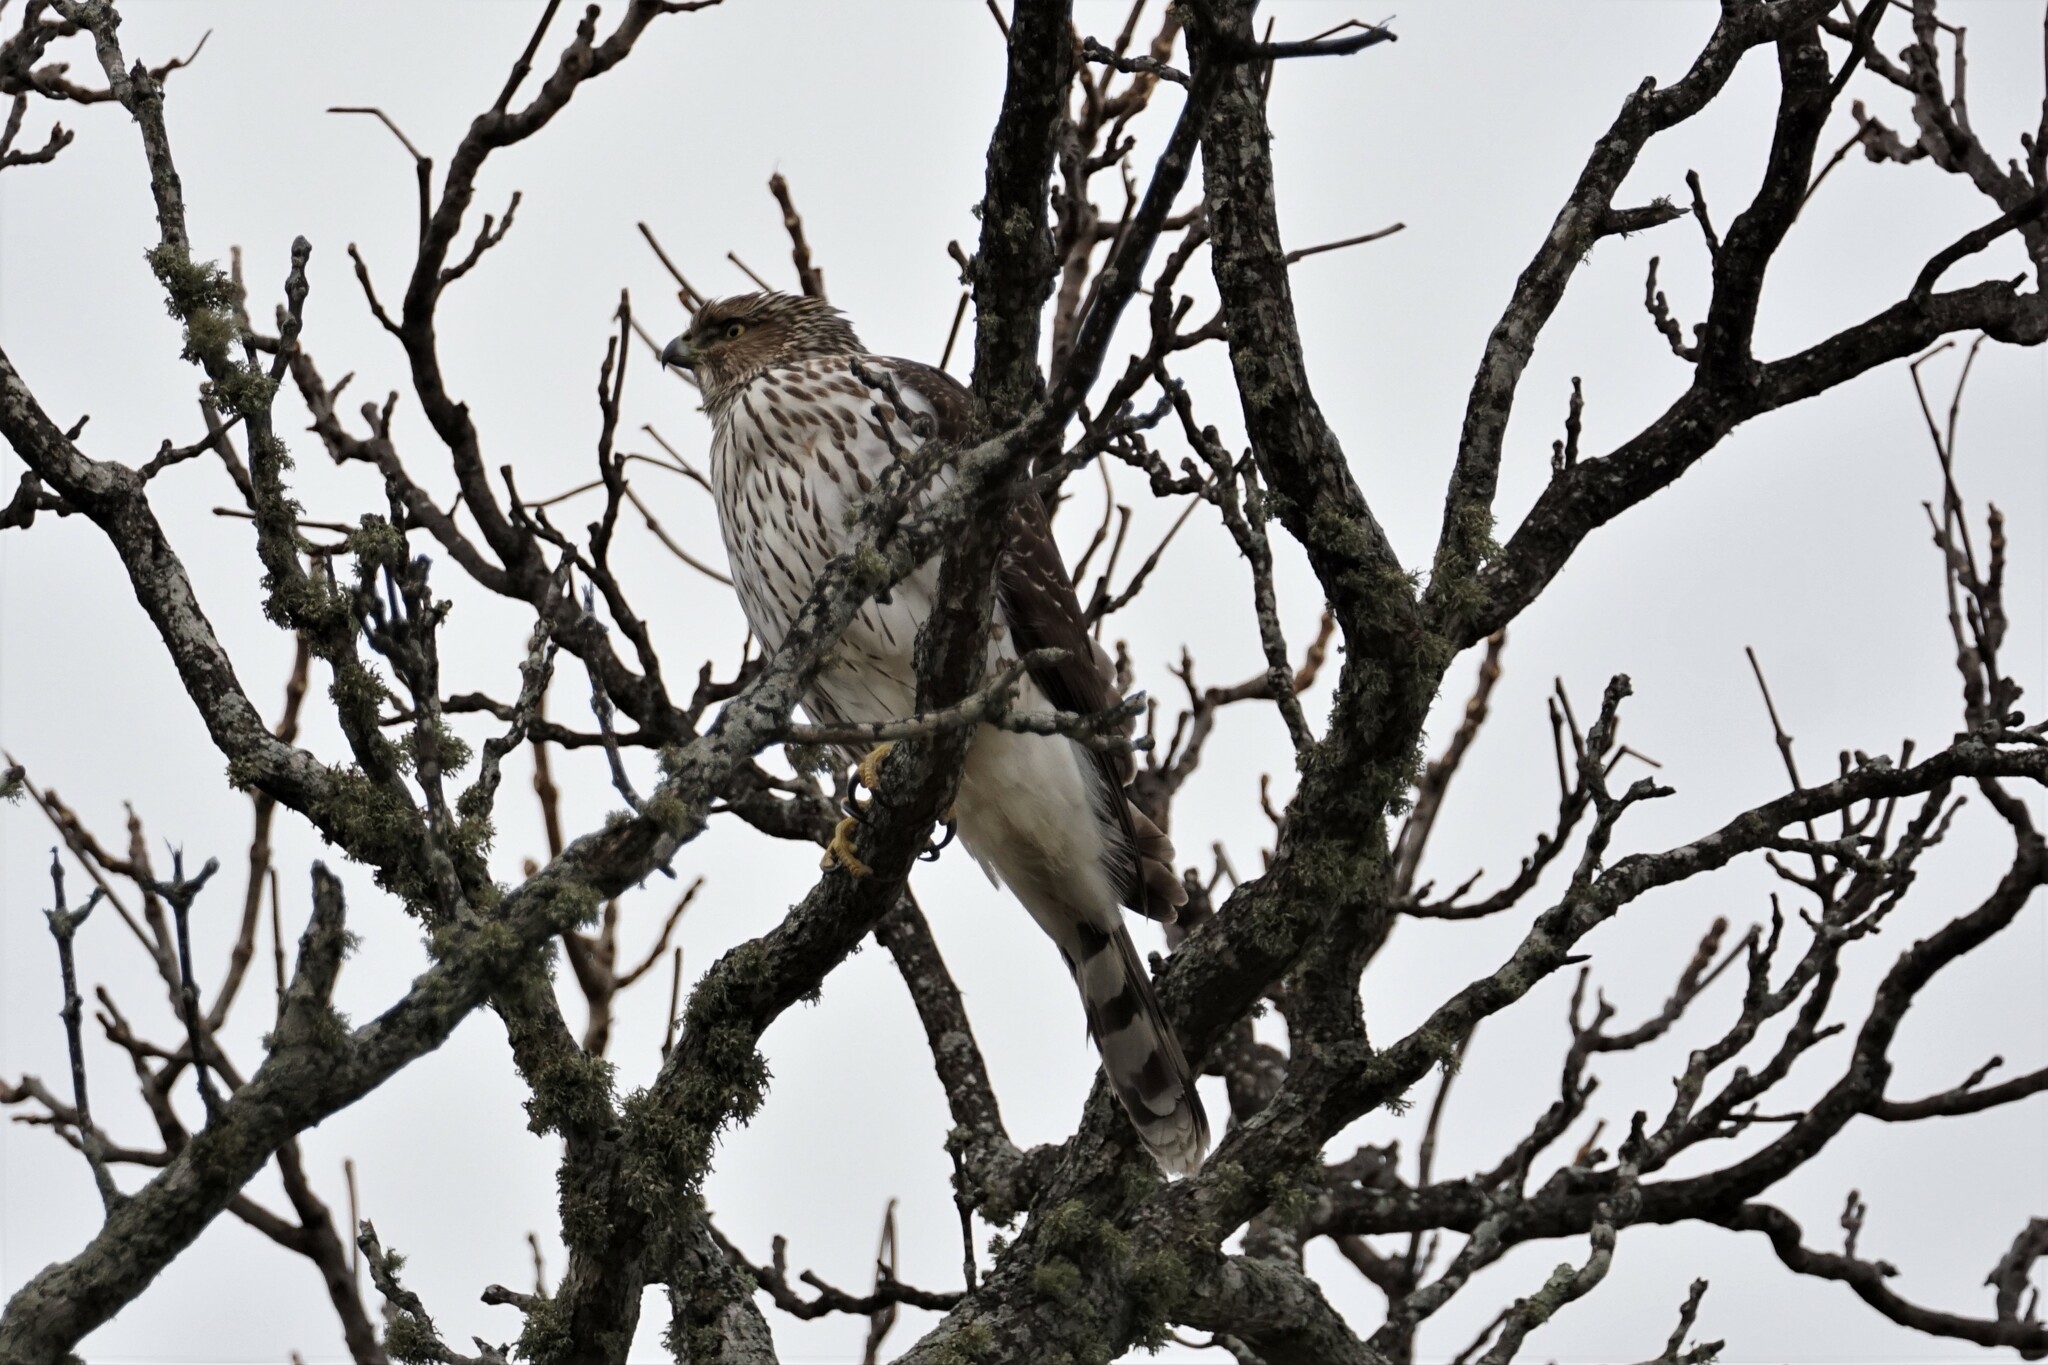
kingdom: Animalia
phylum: Chordata
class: Aves
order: Accipitriformes
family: Accipitridae
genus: Accipiter
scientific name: Accipiter cooperii
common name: Cooper's hawk
